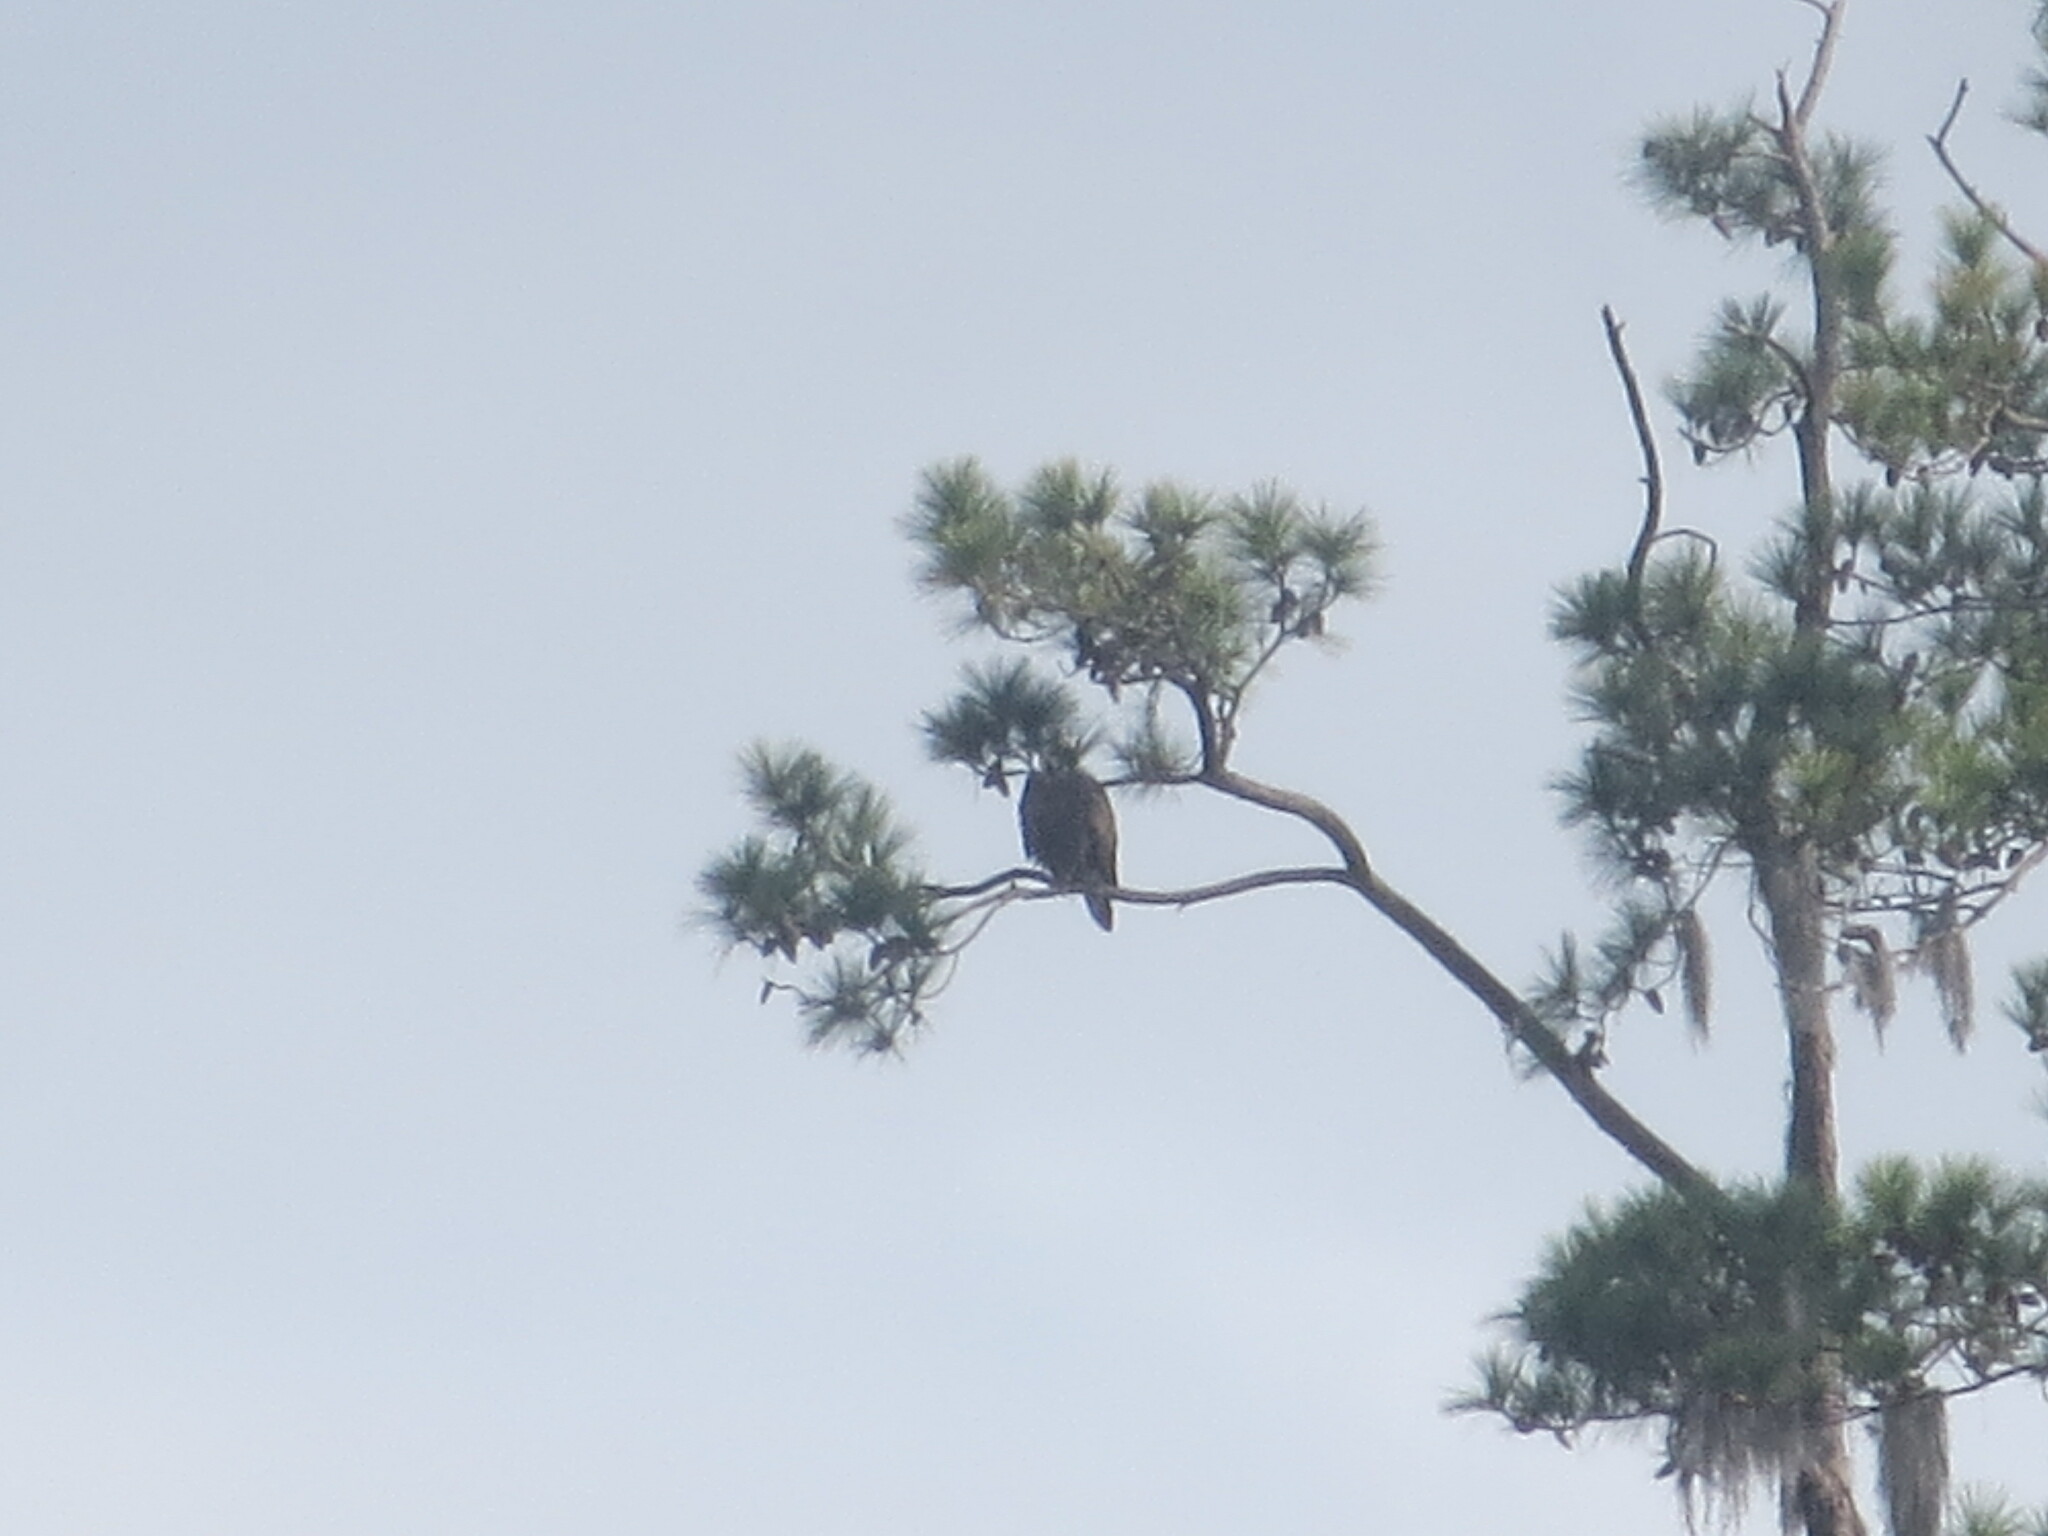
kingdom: Animalia
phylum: Chordata
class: Aves
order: Accipitriformes
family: Accipitridae
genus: Haliaeetus
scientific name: Haliaeetus leucocephalus
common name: Bald eagle
